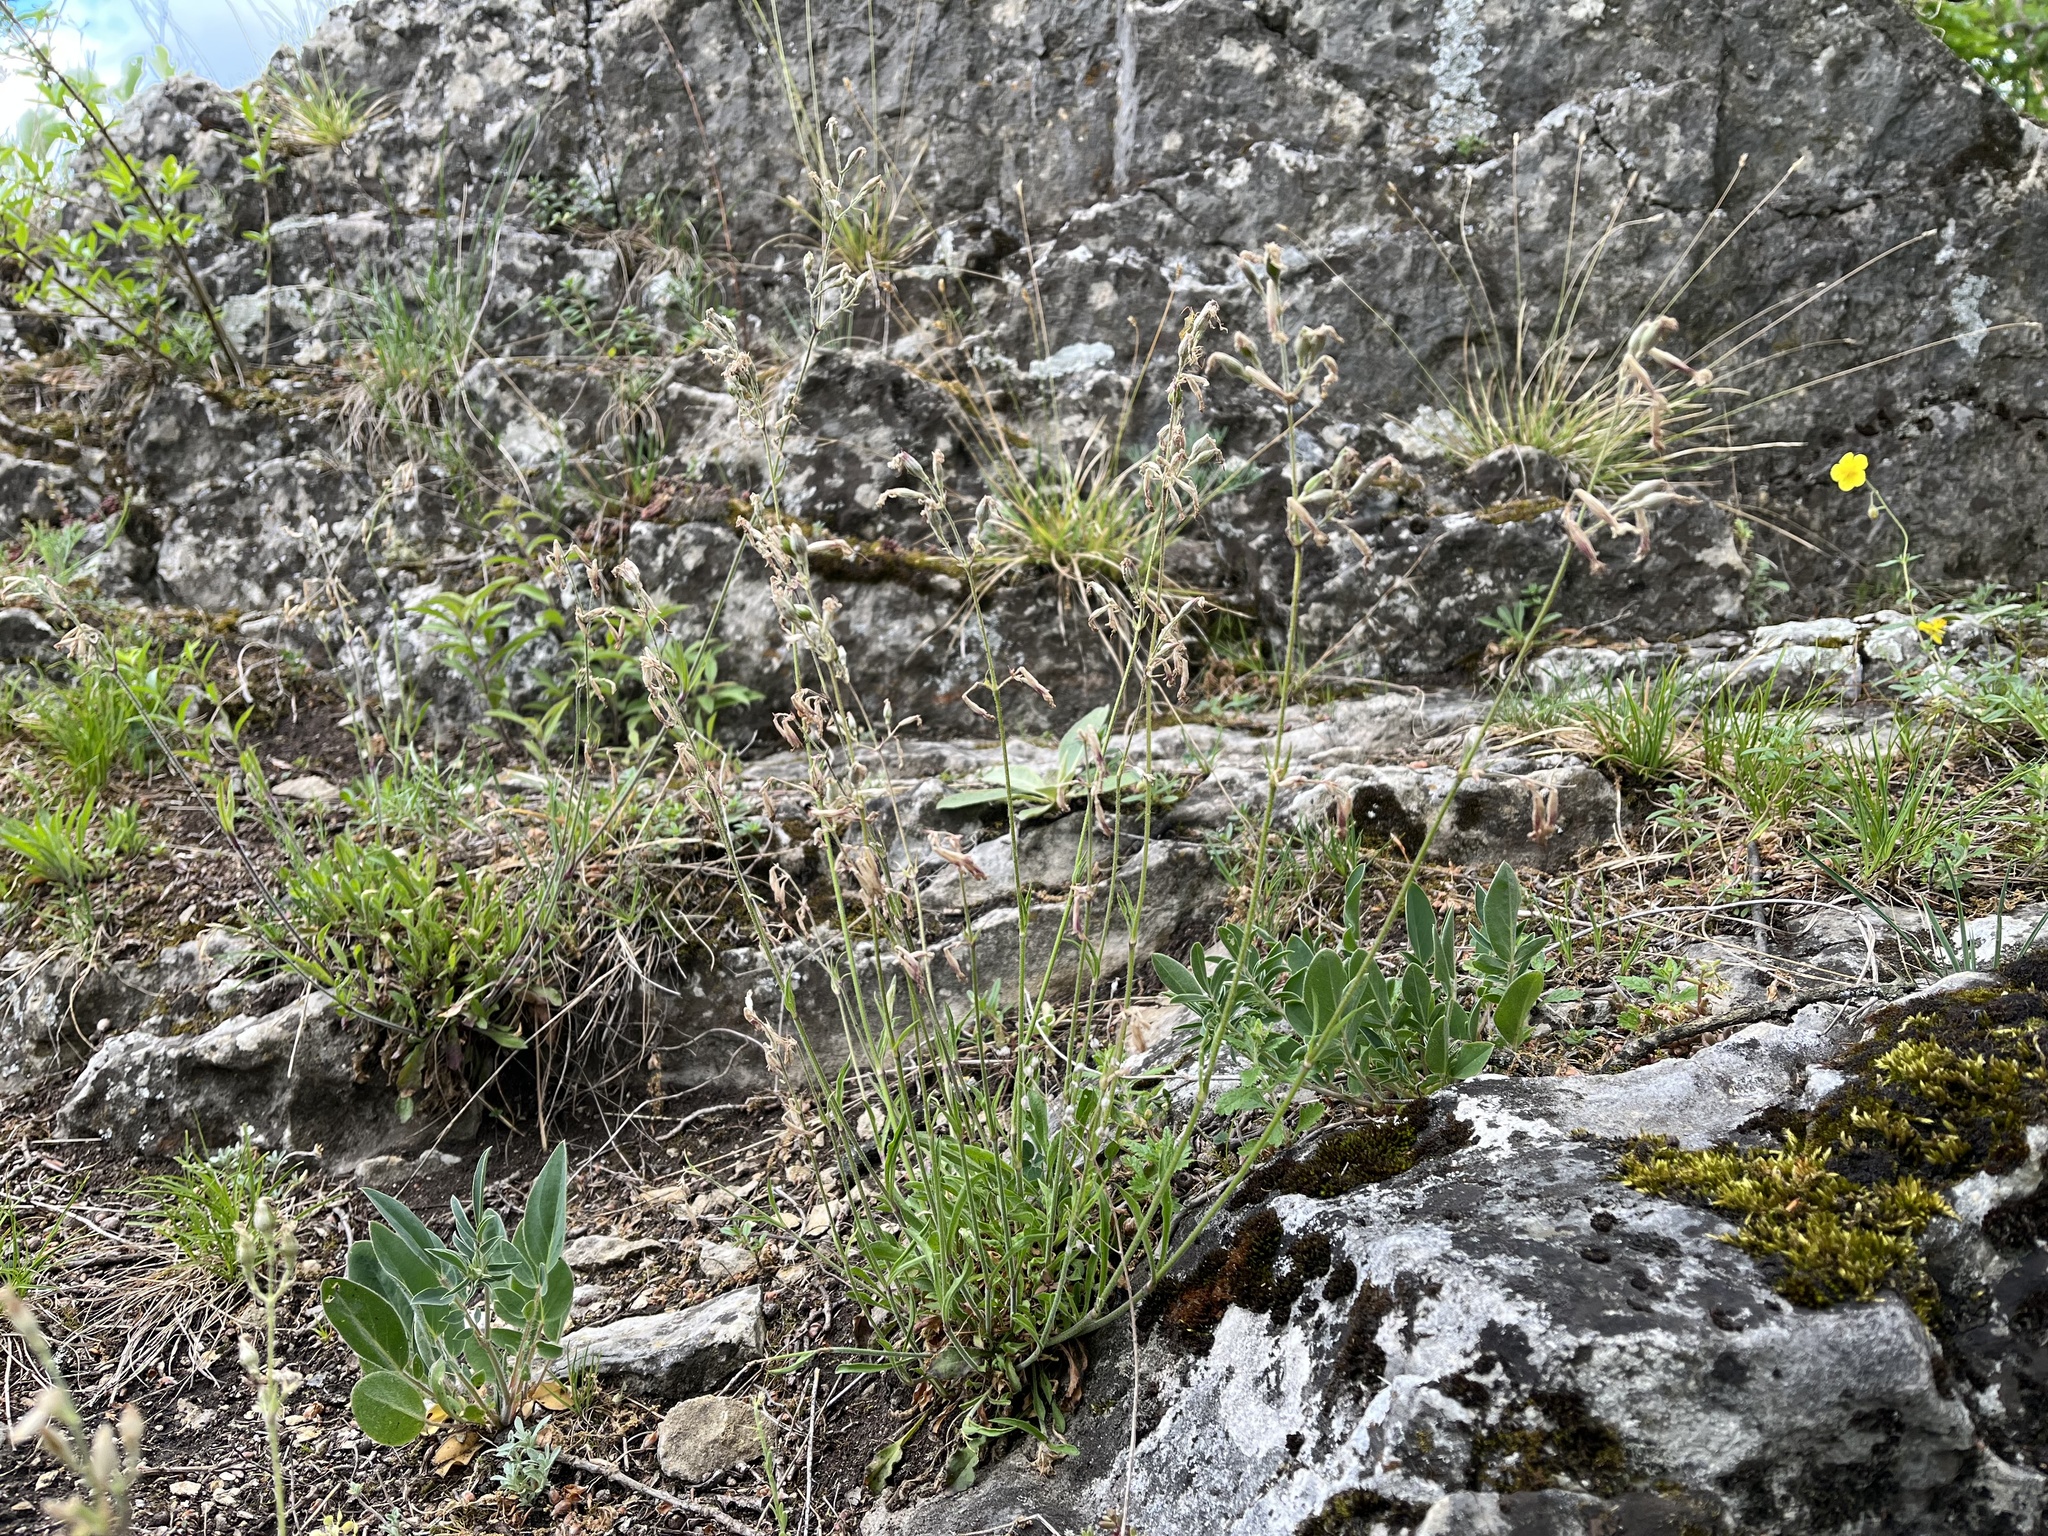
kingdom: Plantae
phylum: Tracheophyta
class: Magnoliopsida
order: Caryophyllales
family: Caryophyllaceae
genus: Silene
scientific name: Silene nutans
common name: Nottingham catchfly
